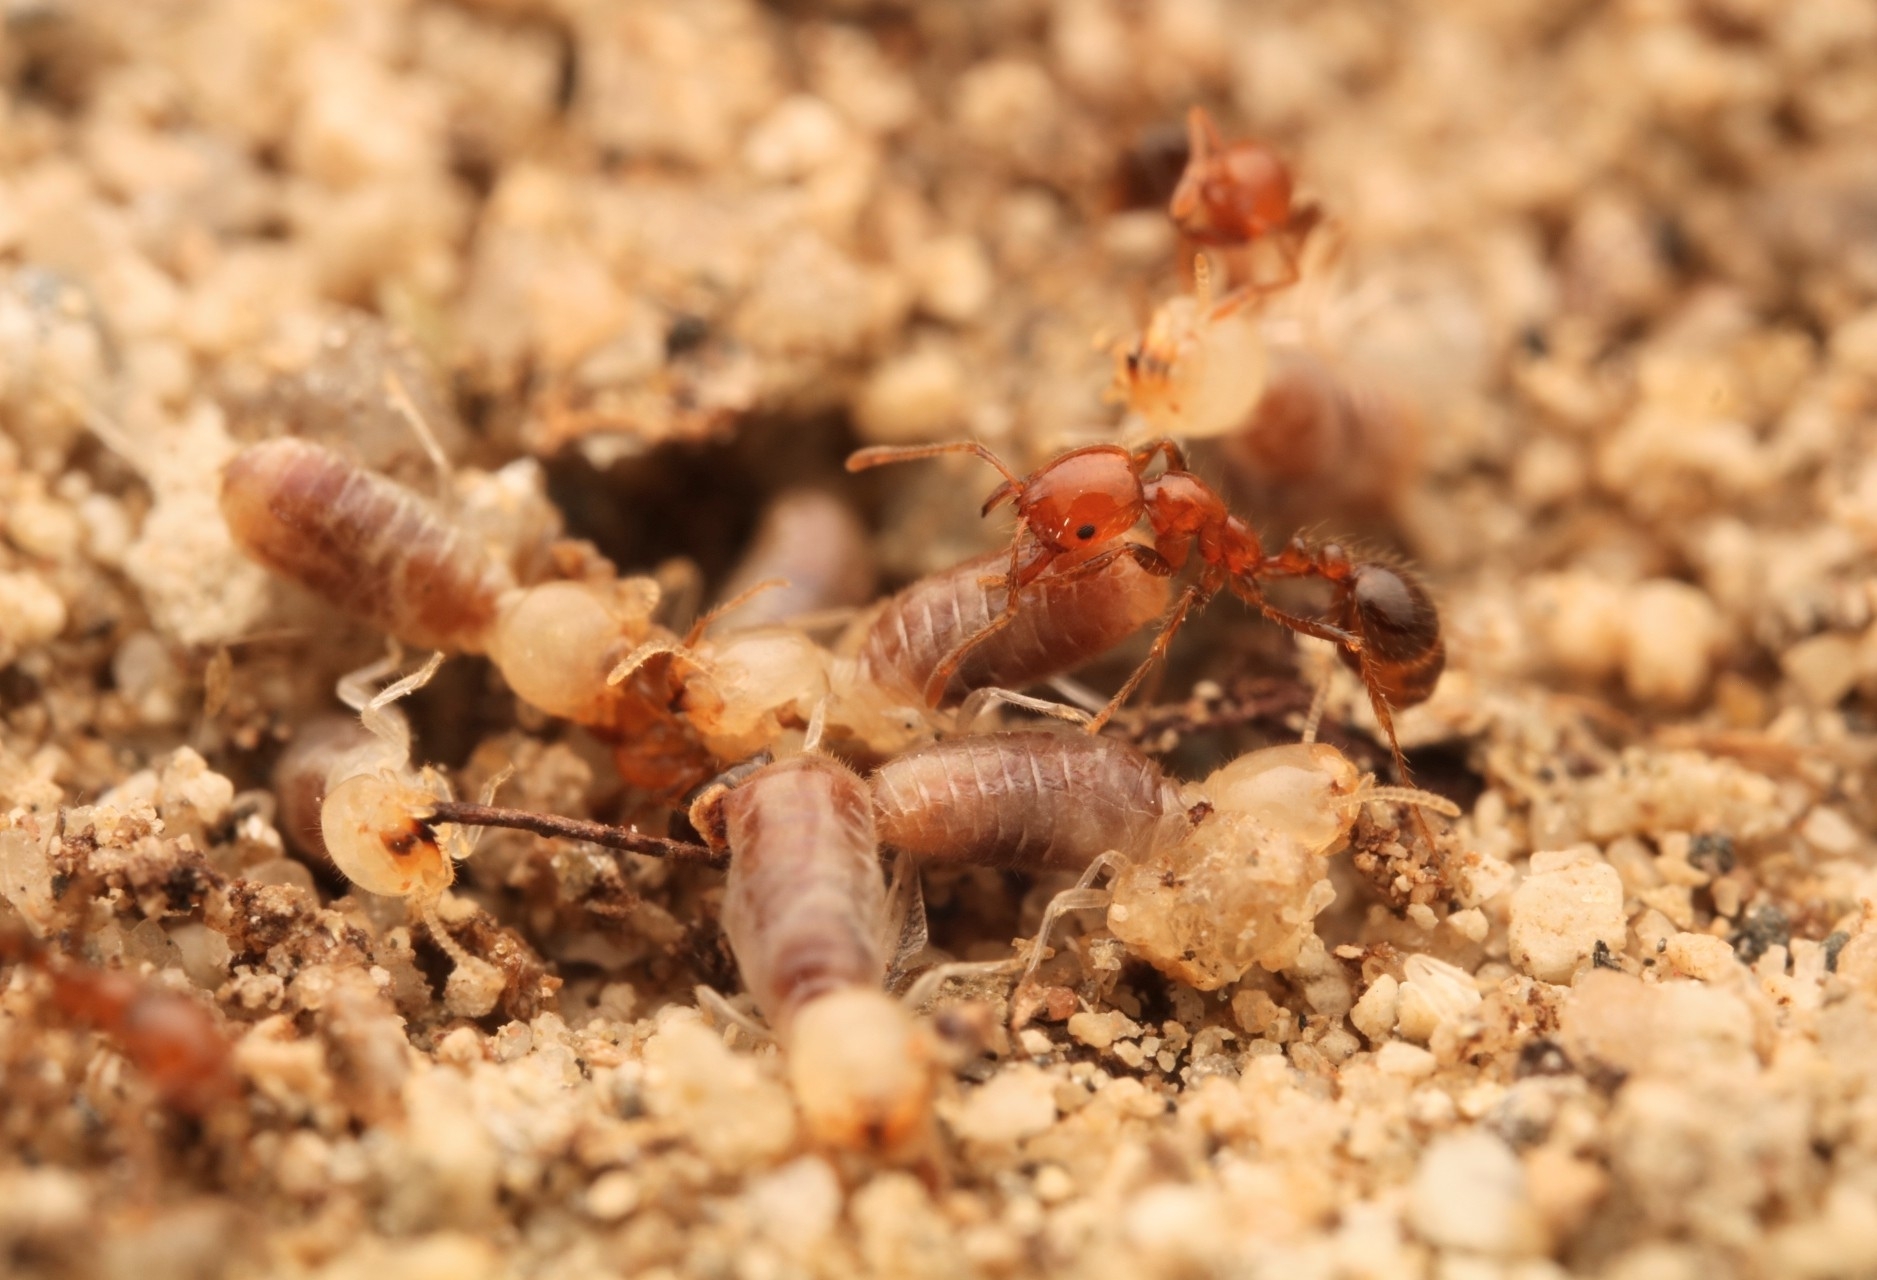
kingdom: Animalia
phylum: Arthropoda
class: Insecta
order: Hymenoptera
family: Formicidae
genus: Solenopsis
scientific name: Solenopsis xyloni
